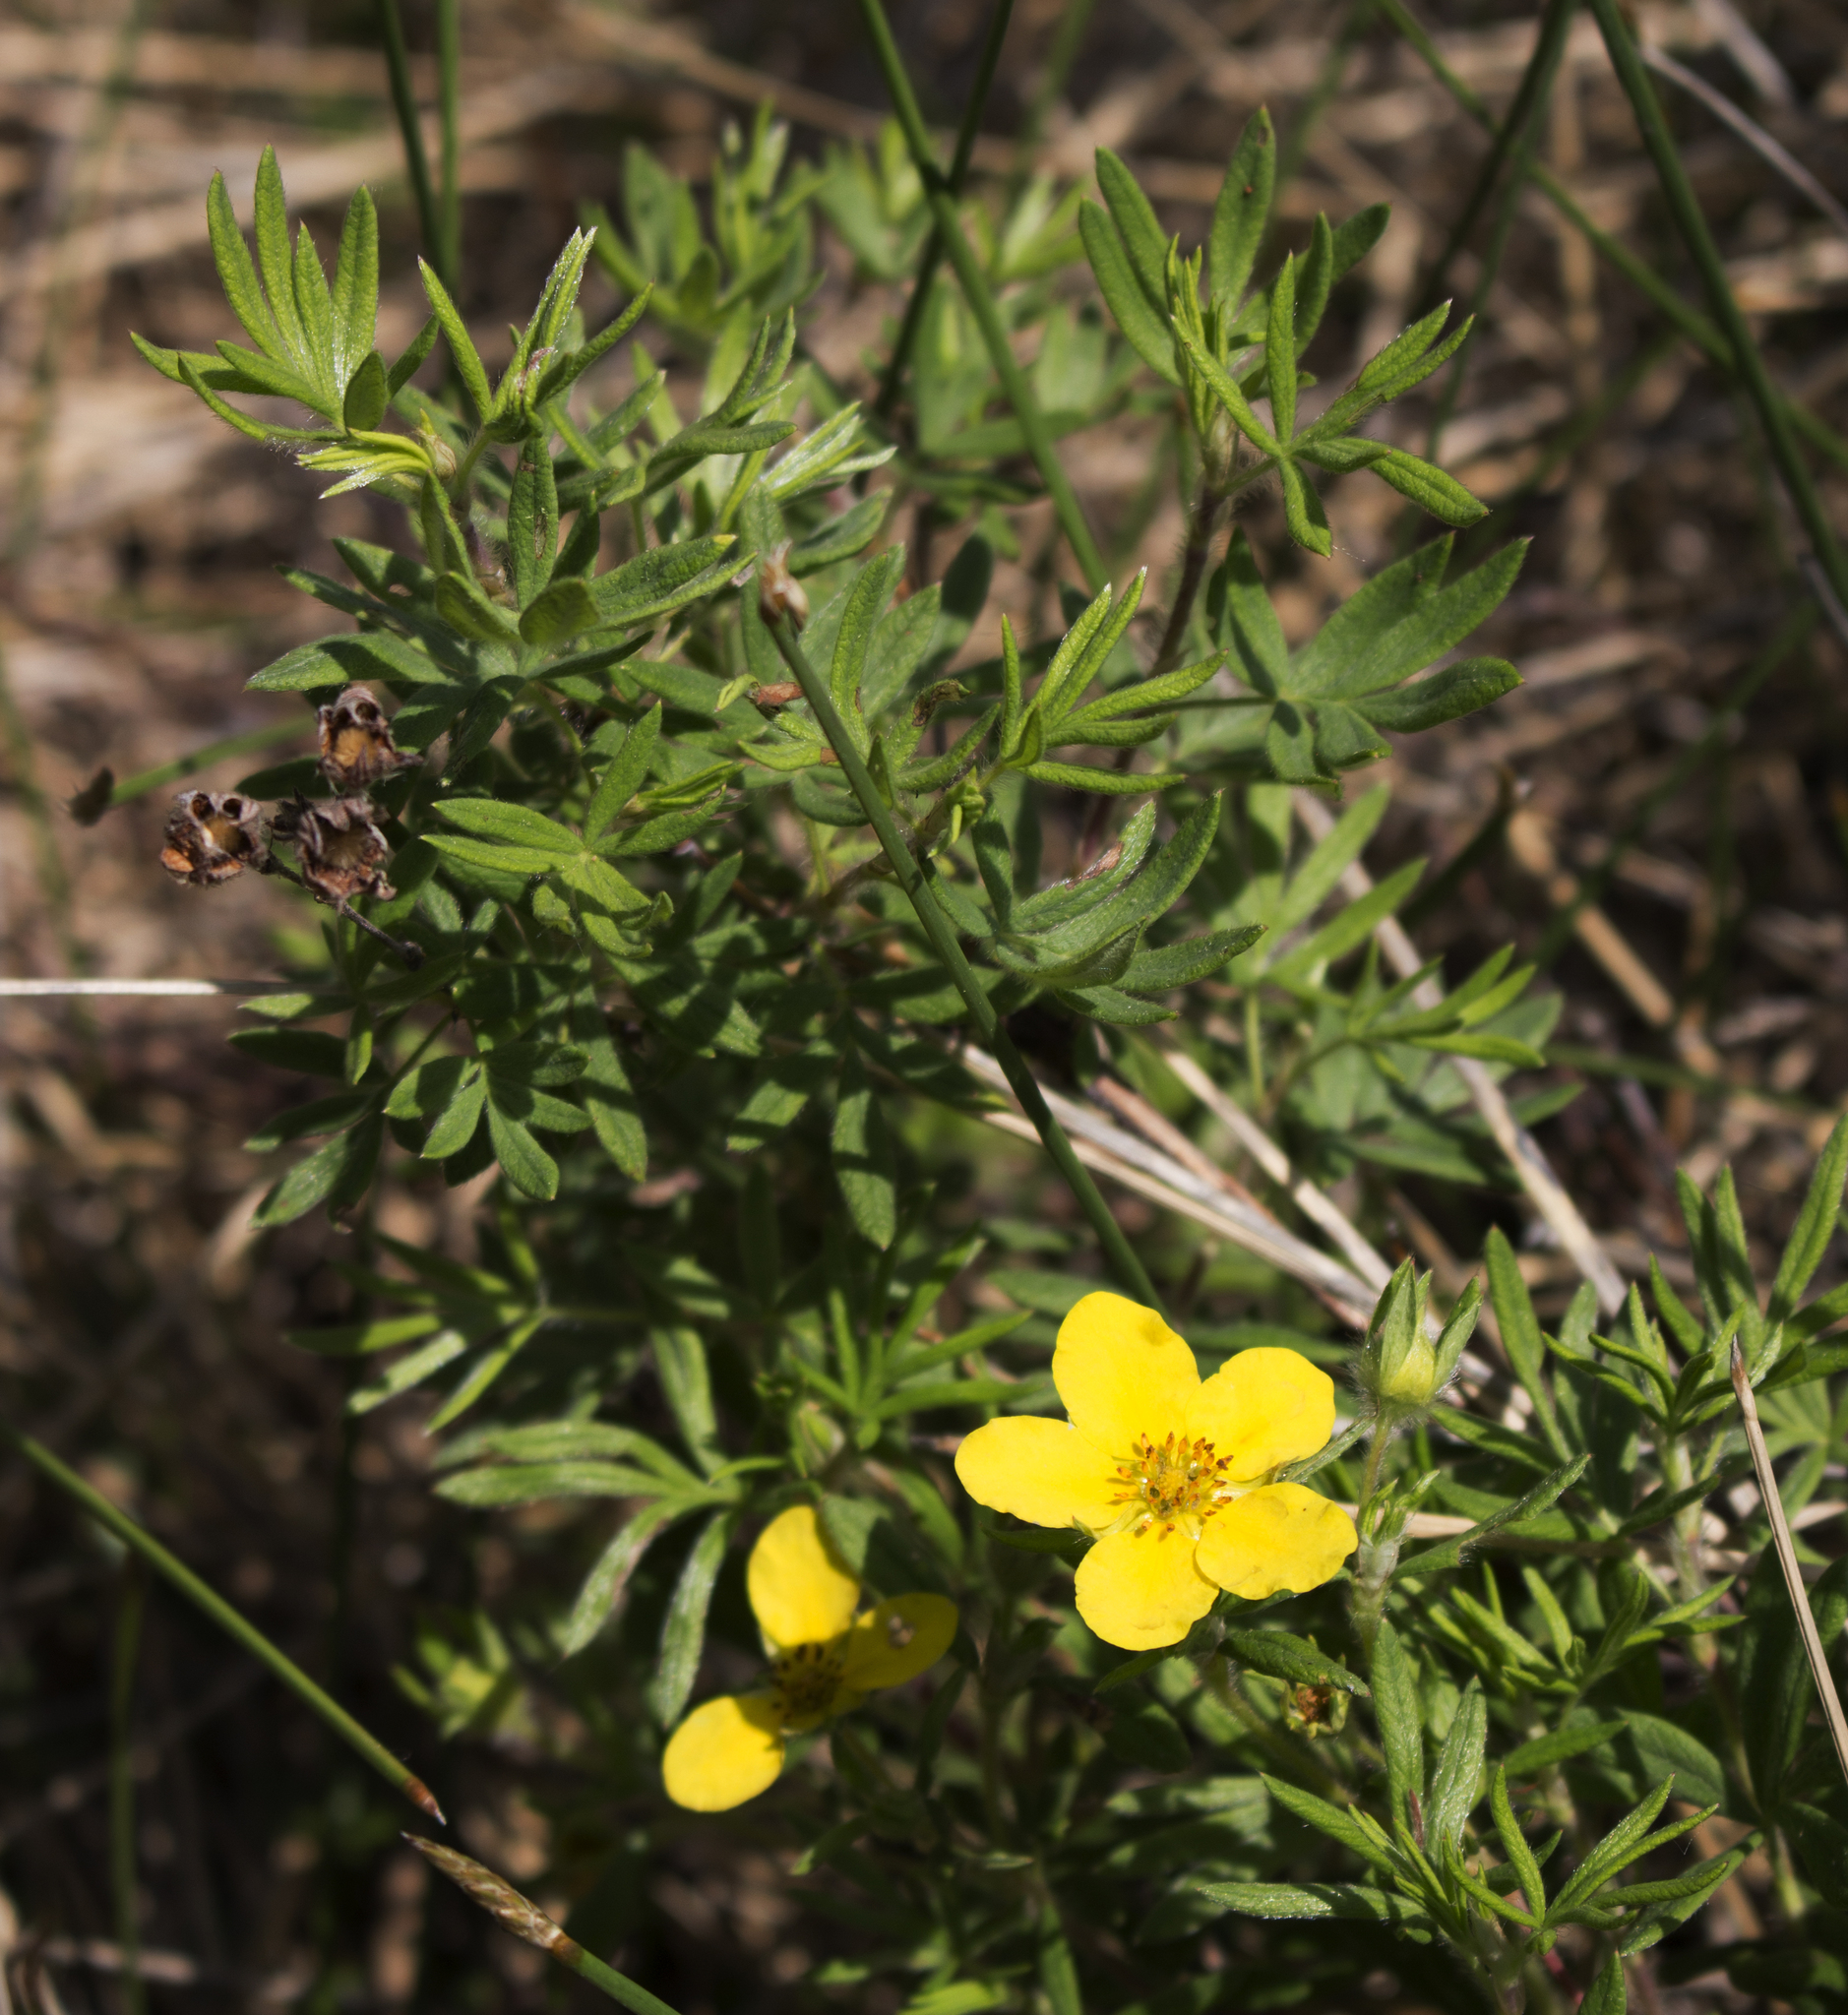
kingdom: Plantae
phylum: Tracheophyta
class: Magnoliopsida
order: Rosales
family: Rosaceae
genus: Dasiphora
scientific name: Dasiphora fruticosa
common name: Shrubby cinquefoil
